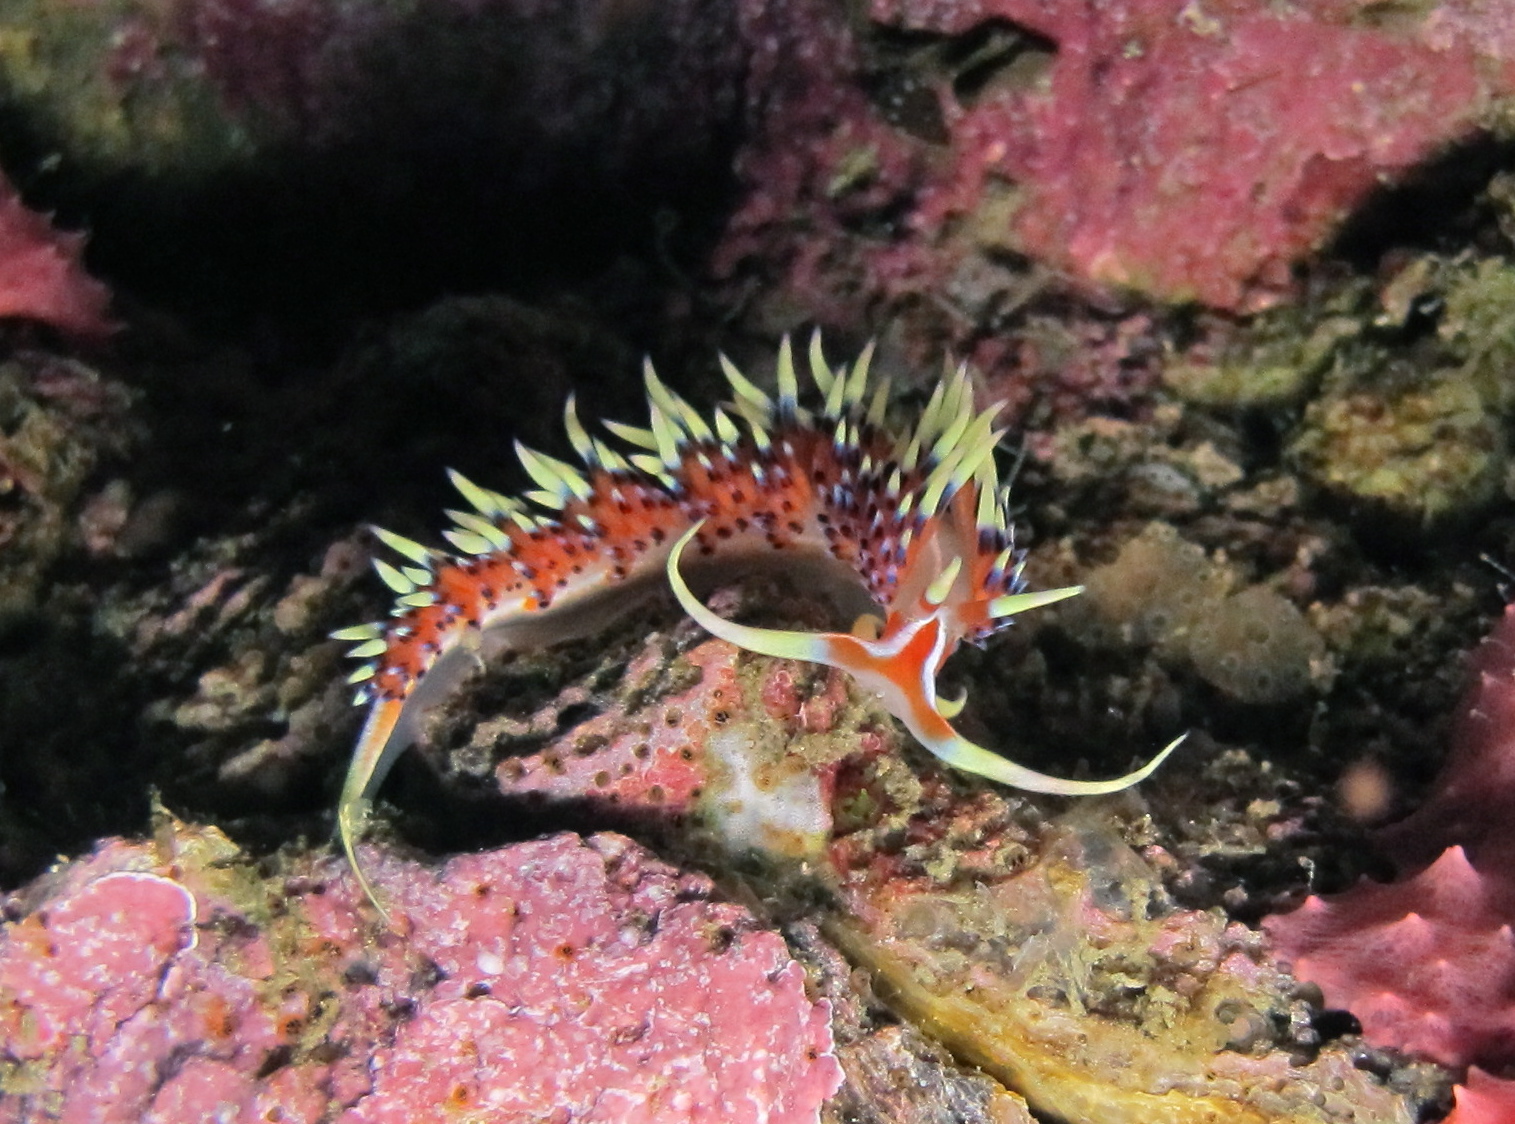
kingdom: Animalia
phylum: Mollusca
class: Gastropoda
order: Nudibranchia
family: Facelinidae
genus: Caloria
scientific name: Caloria indica
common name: Sea slug
